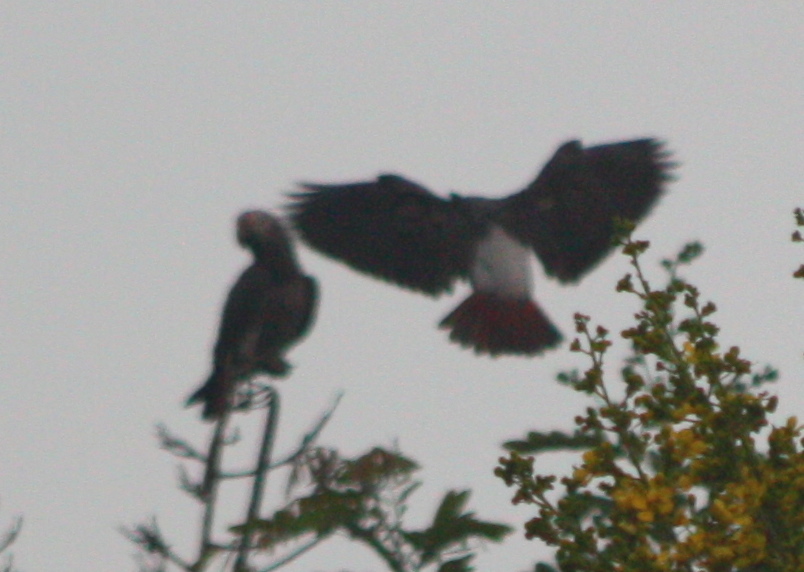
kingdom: Animalia
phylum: Chordata
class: Aves
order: Psittaciformes
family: Psittacidae
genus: Psittacus
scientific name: Psittacus timneh
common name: Timneh parrot
